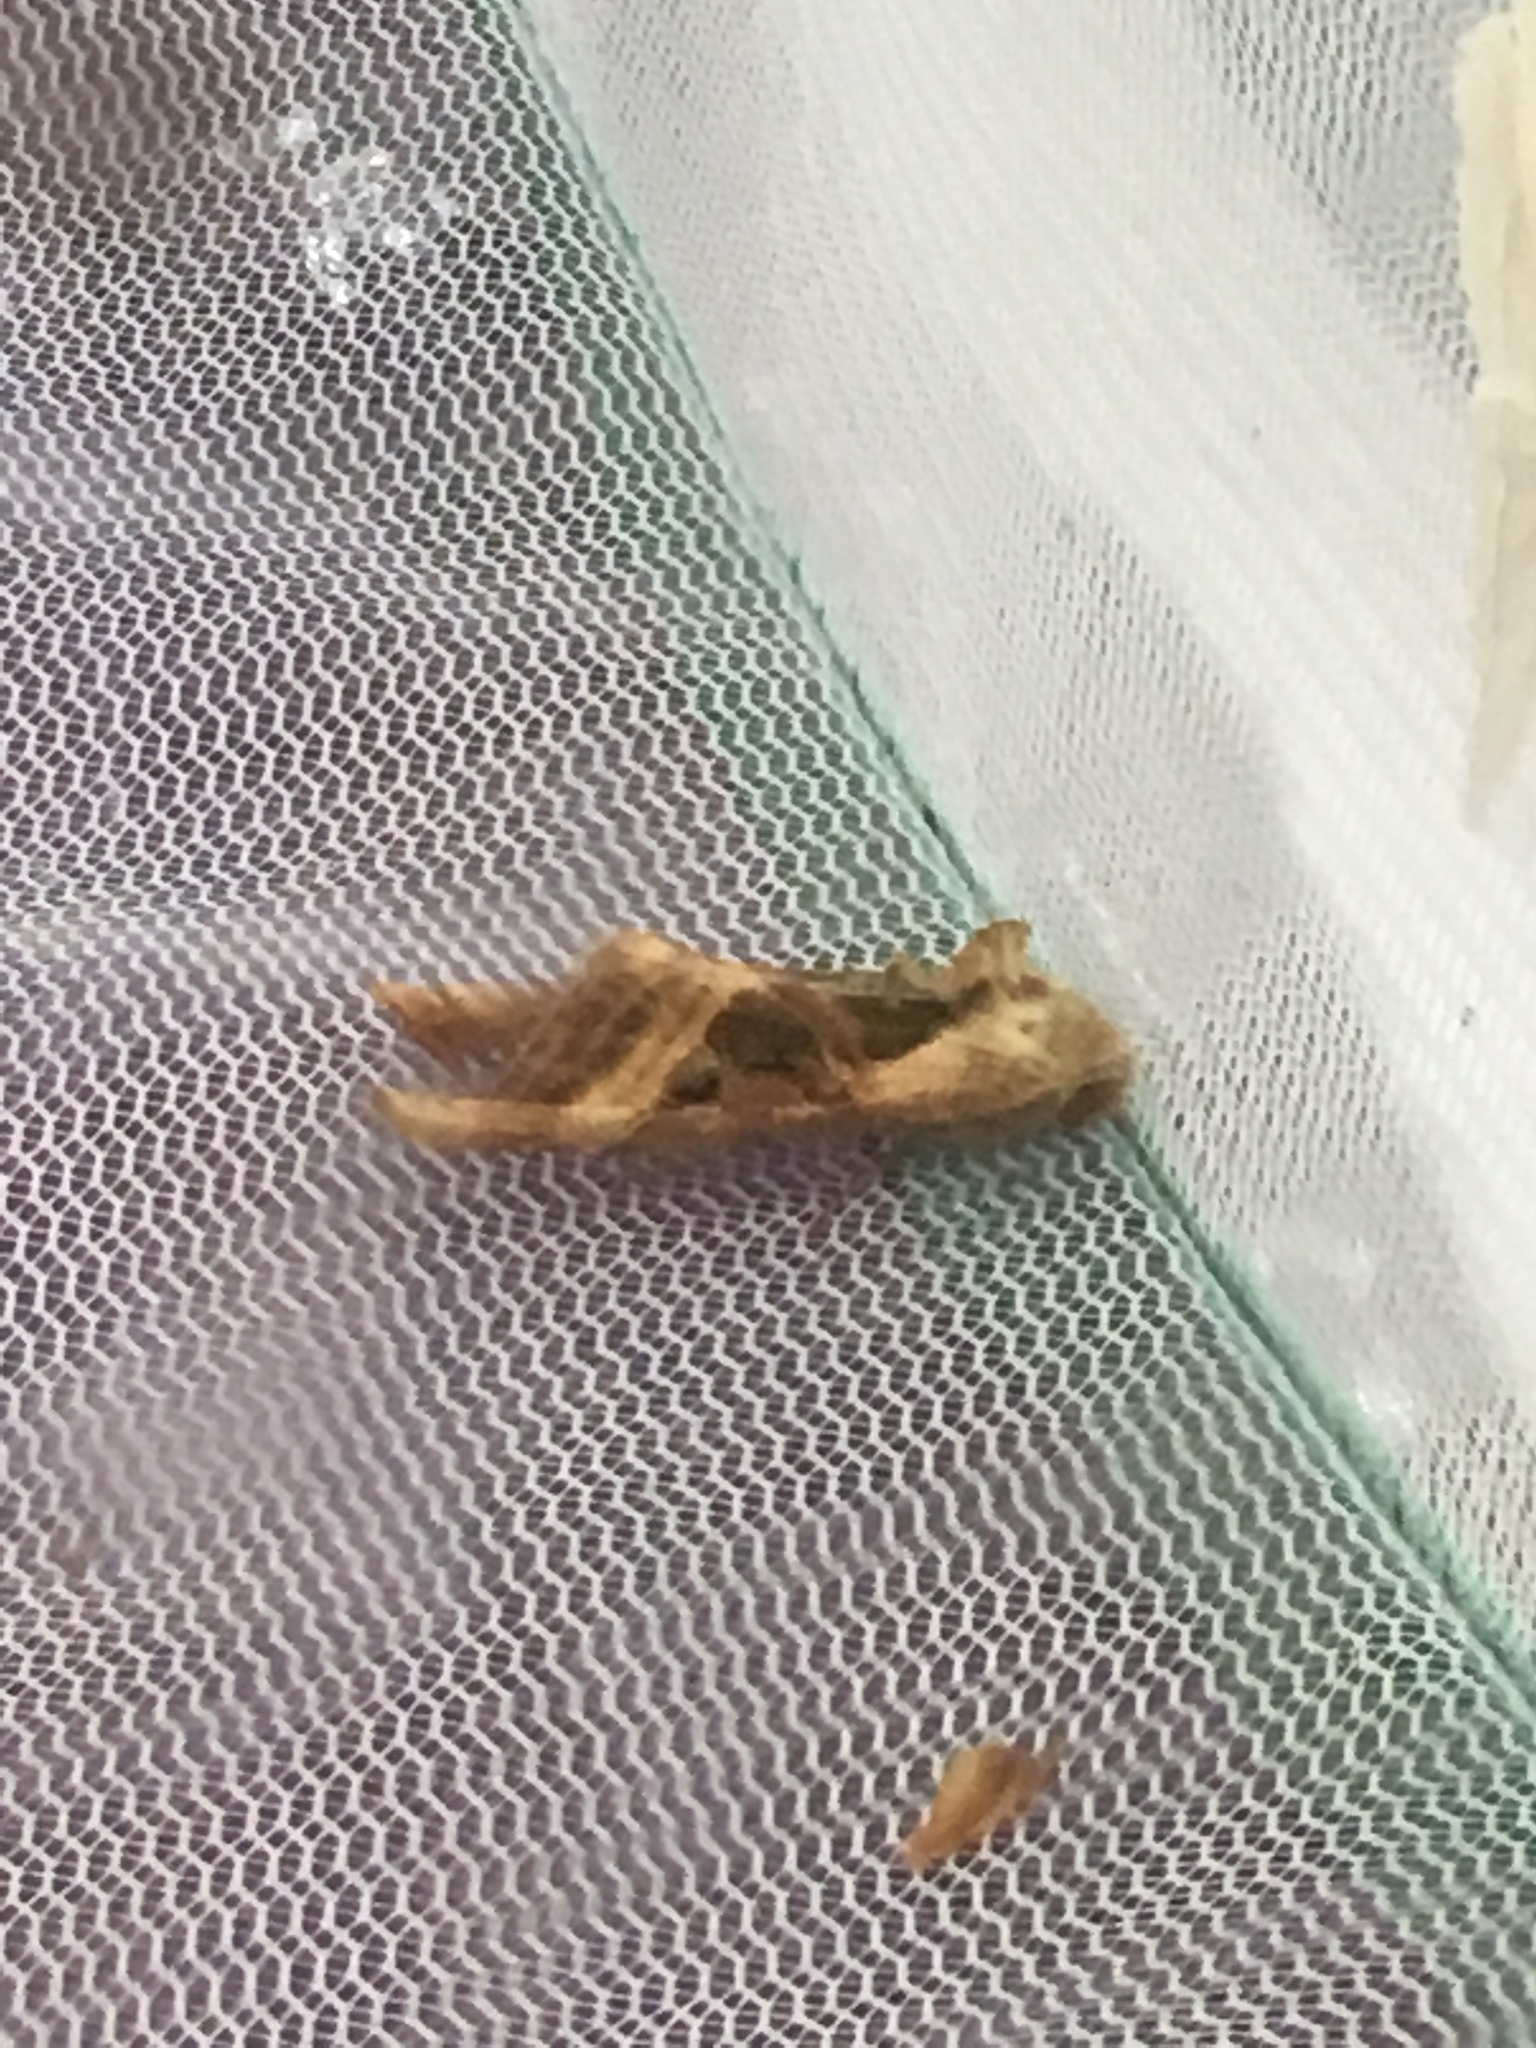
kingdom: Animalia
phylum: Arthropoda
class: Insecta
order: Lepidoptera
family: Noctuidae
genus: Phlogophora
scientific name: Phlogophora iris
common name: Olive angle shades
